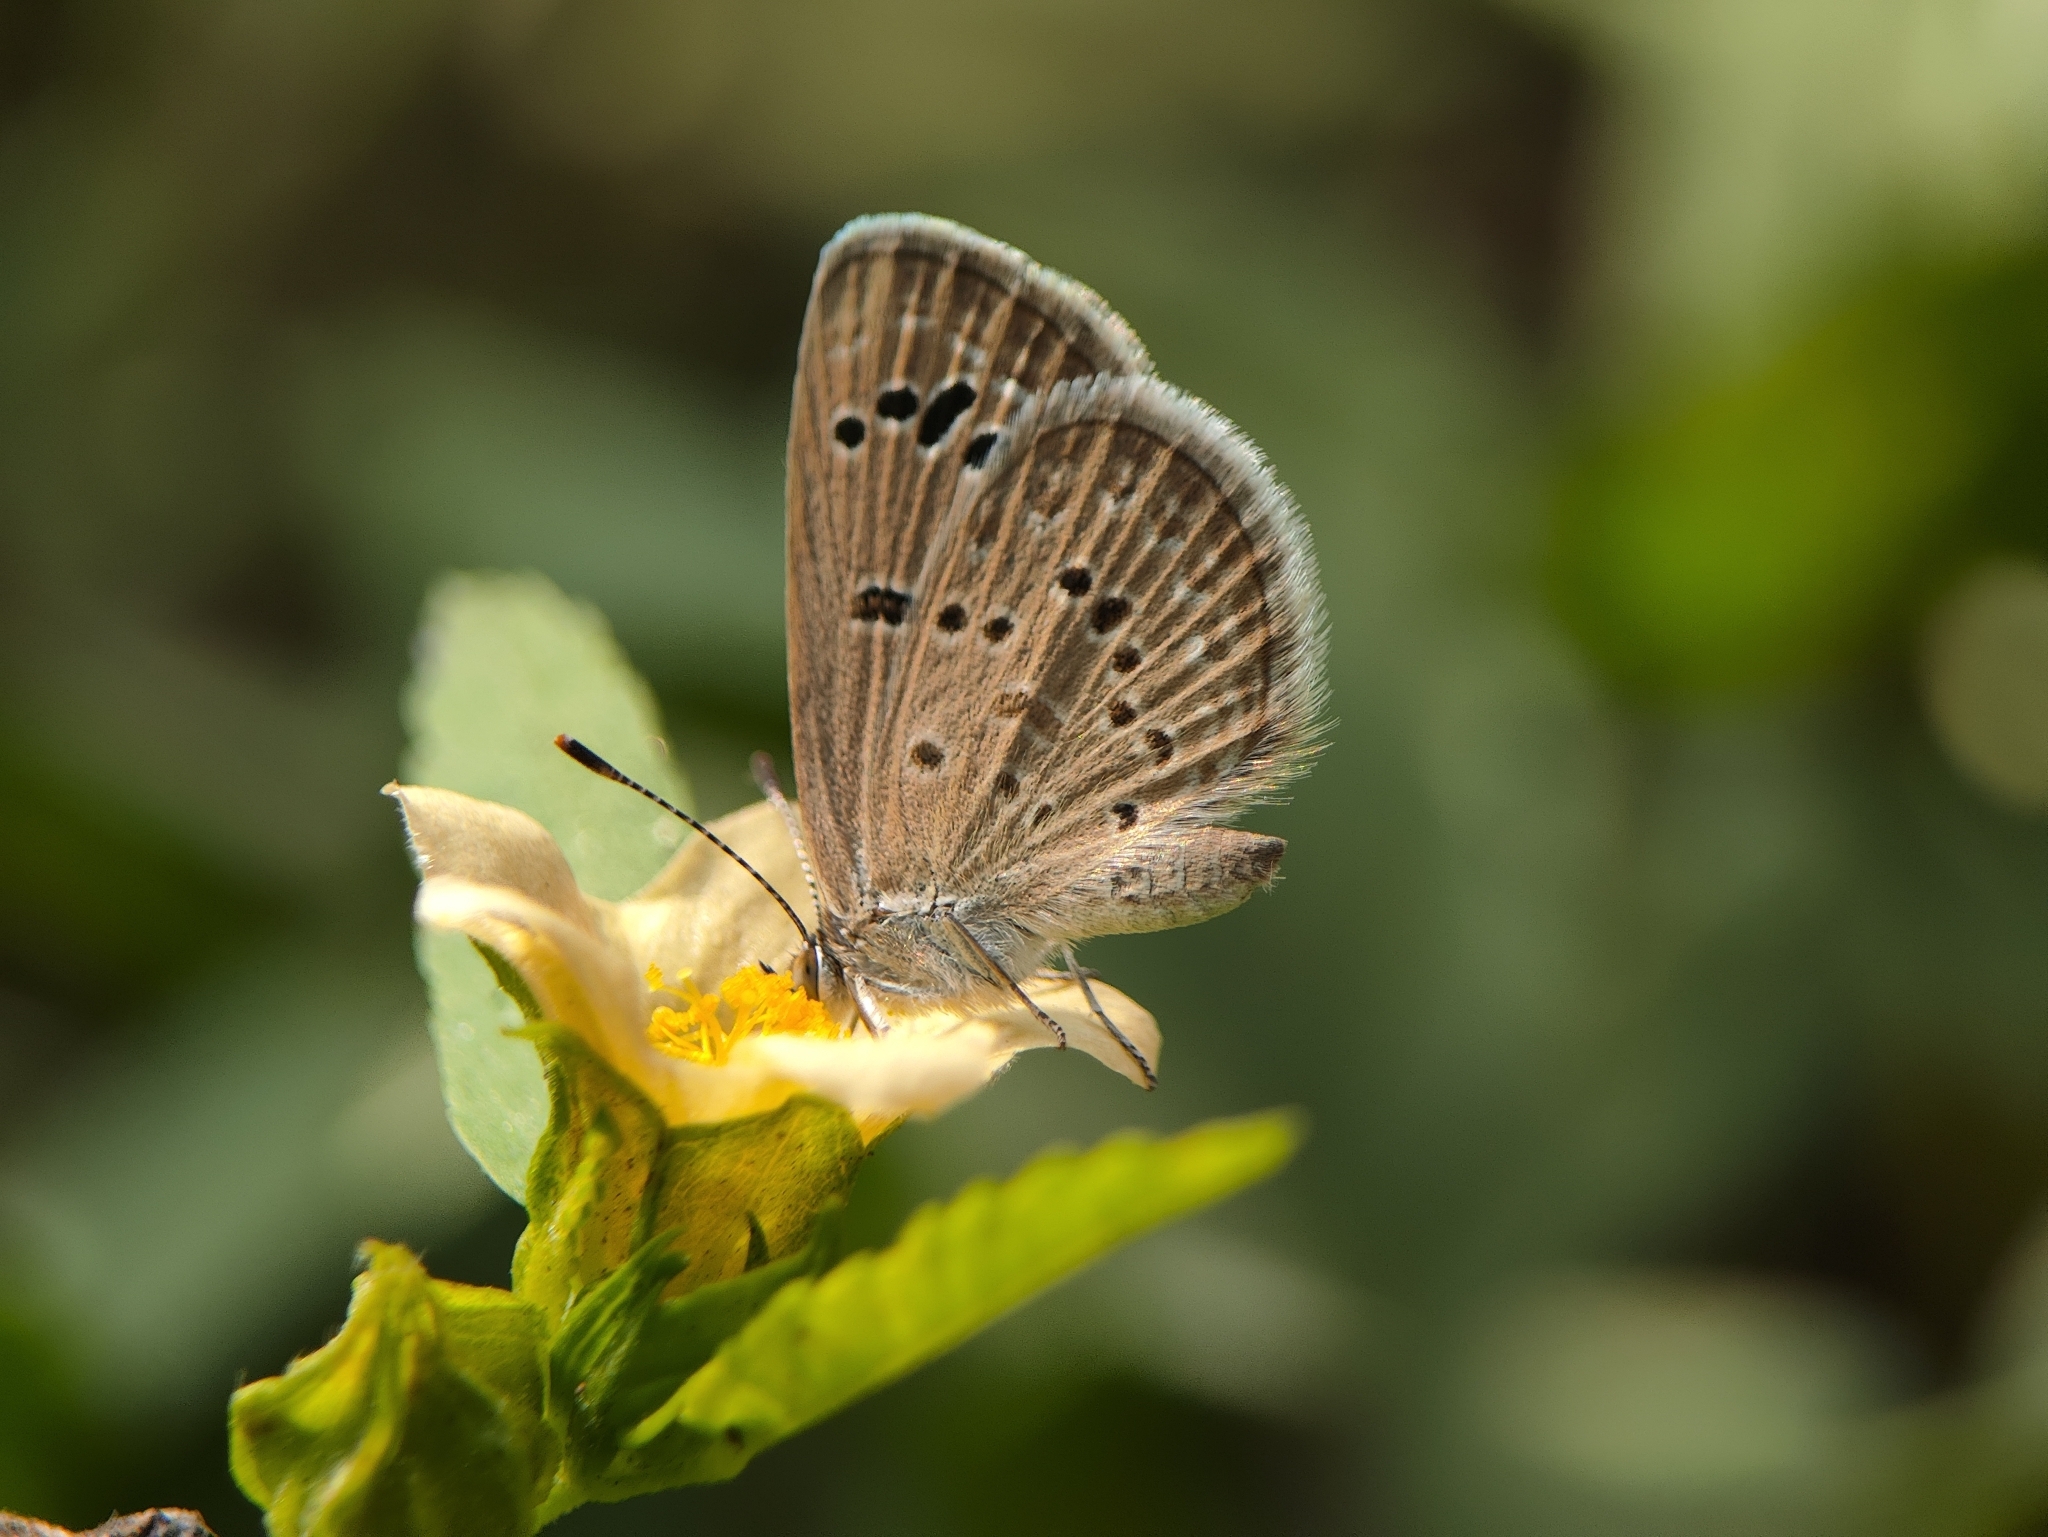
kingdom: Animalia
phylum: Arthropoda
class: Insecta
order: Lepidoptera
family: Lycaenidae
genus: Zizina
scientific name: Zizina otis
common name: Lesser grass blue
